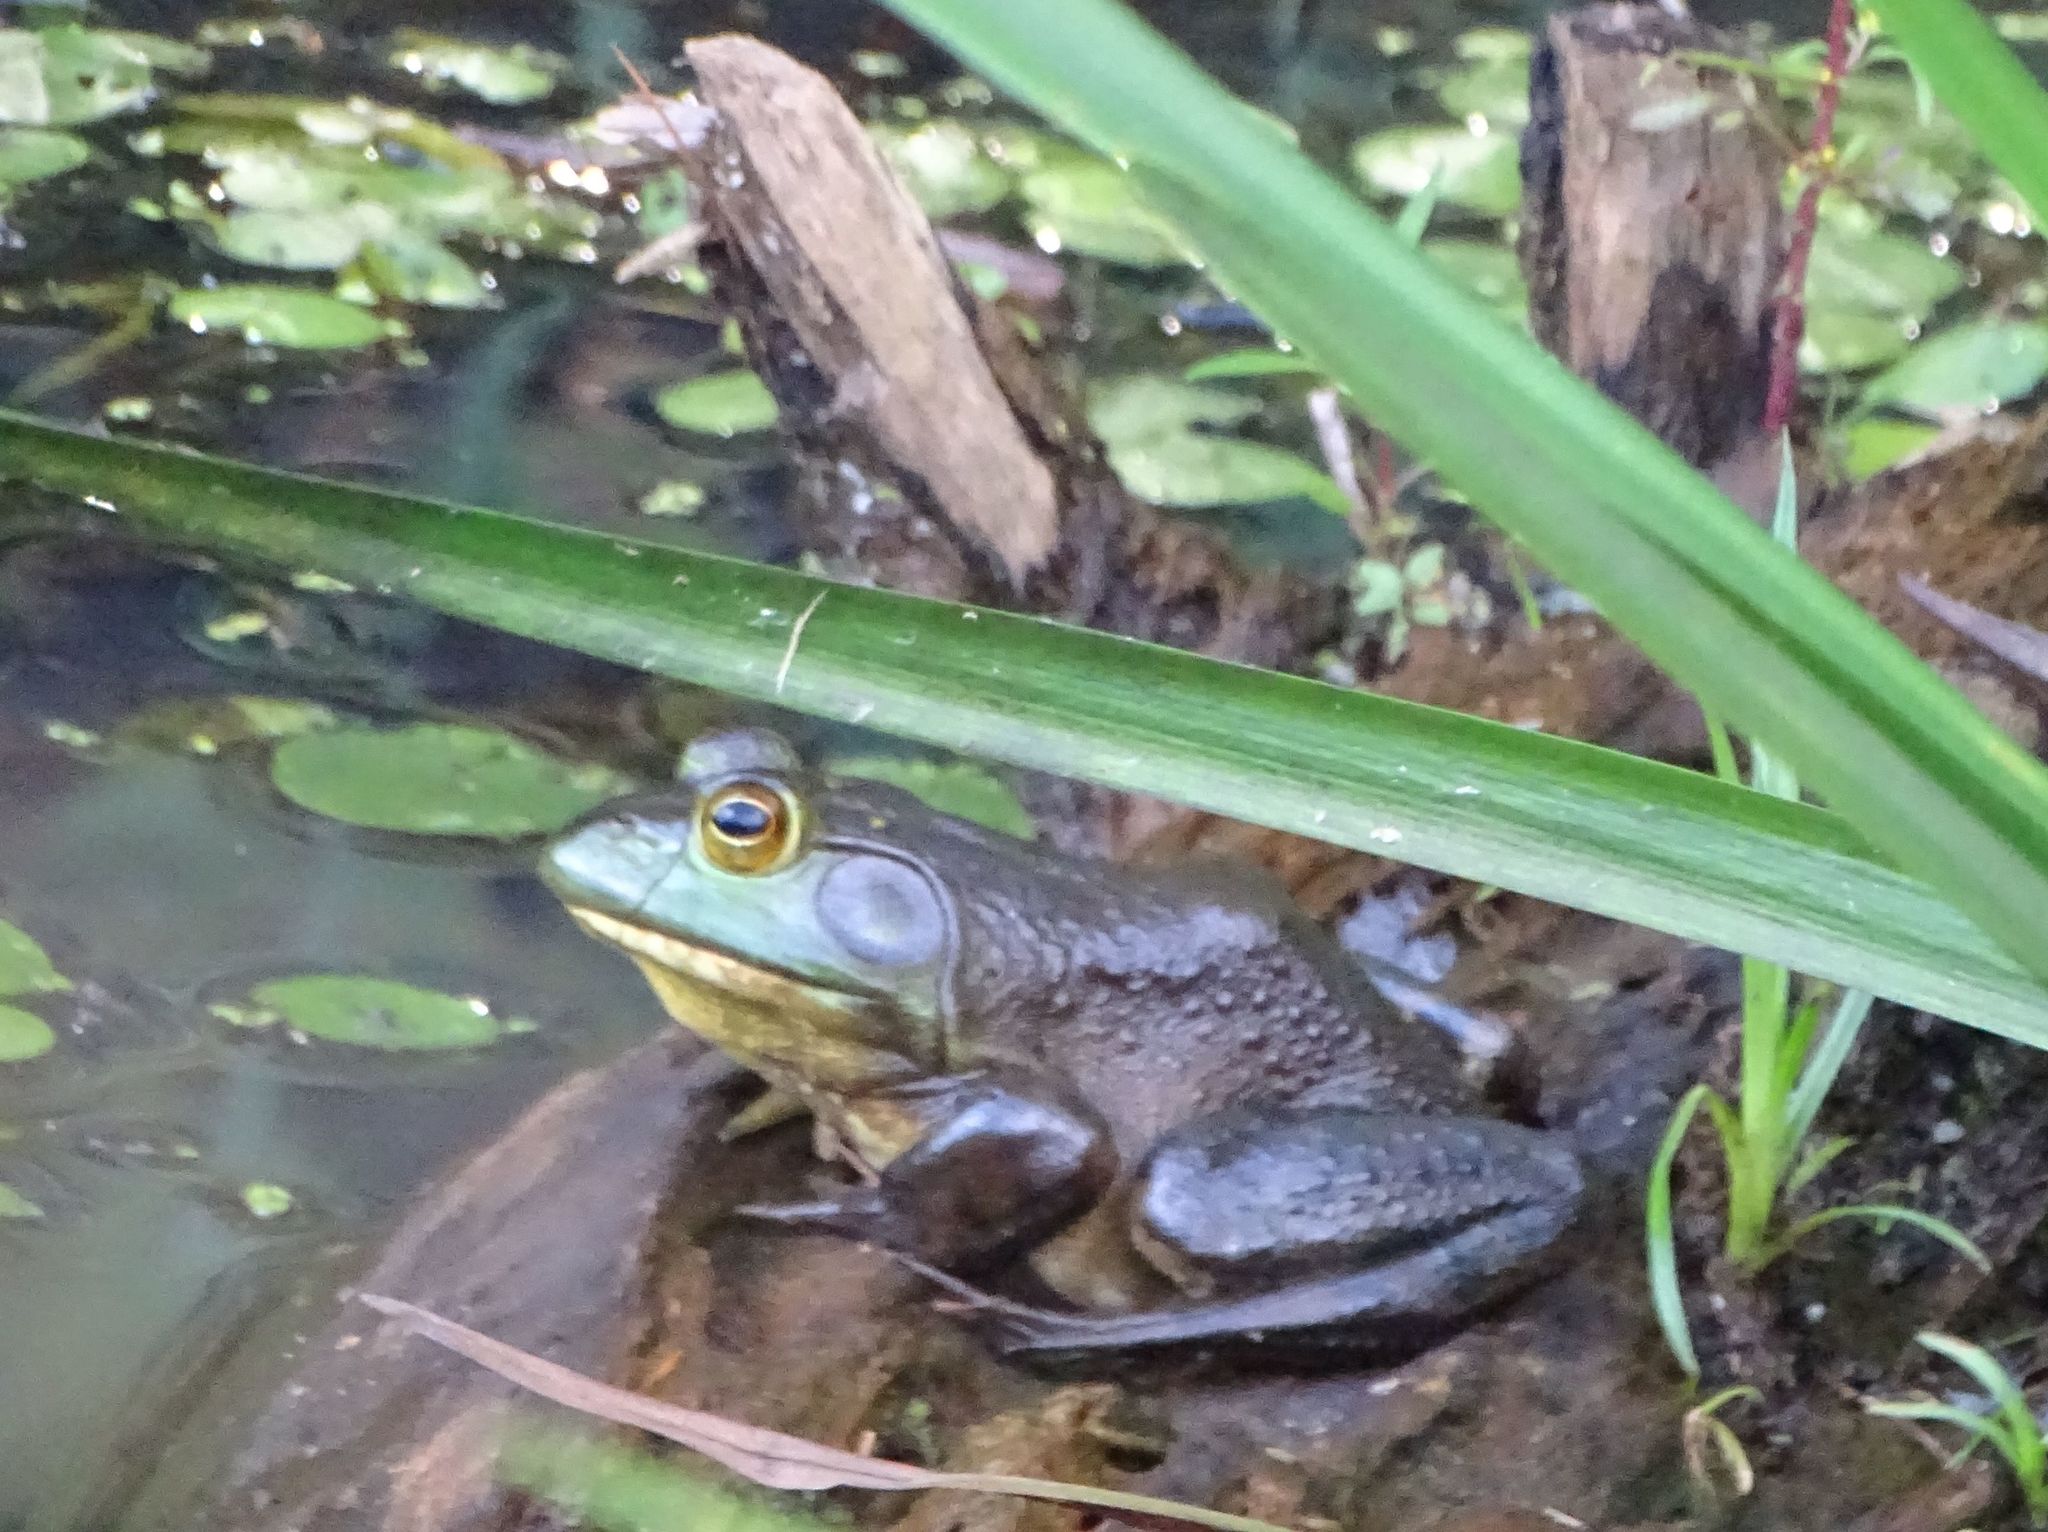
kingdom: Animalia
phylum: Chordata
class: Amphibia
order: Anura
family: Ranidae
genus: Lithobates
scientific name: Lithobates catesbeianus
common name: American bullfrog
